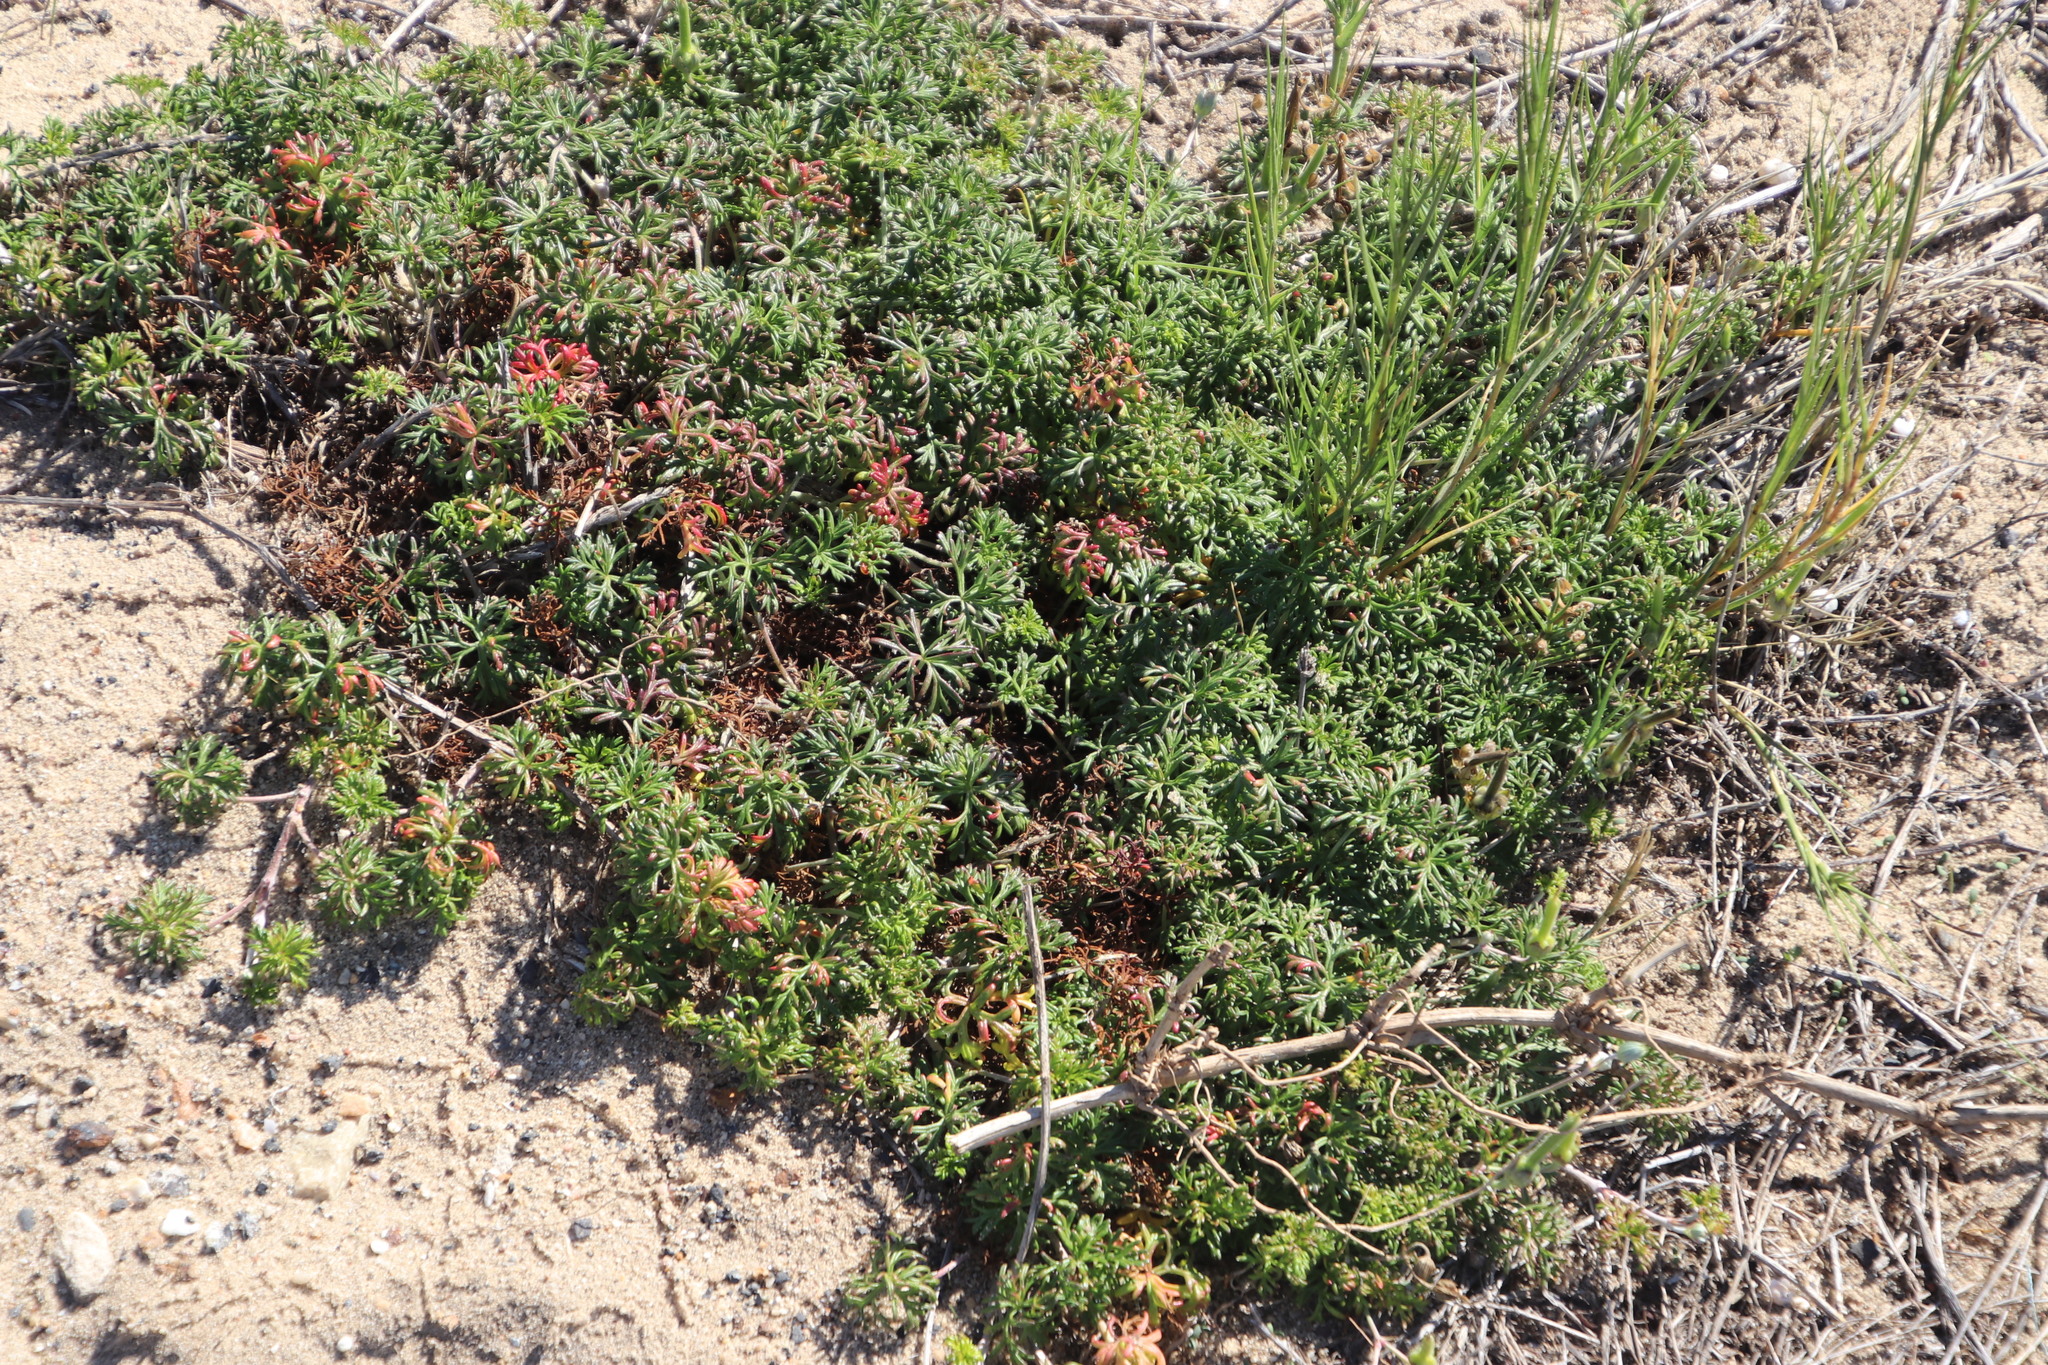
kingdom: Plantae
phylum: Tracheophyta
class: Magnoliopsida
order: Geraniales
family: Geraniaceae
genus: Geranium
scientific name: Geranium incanum
